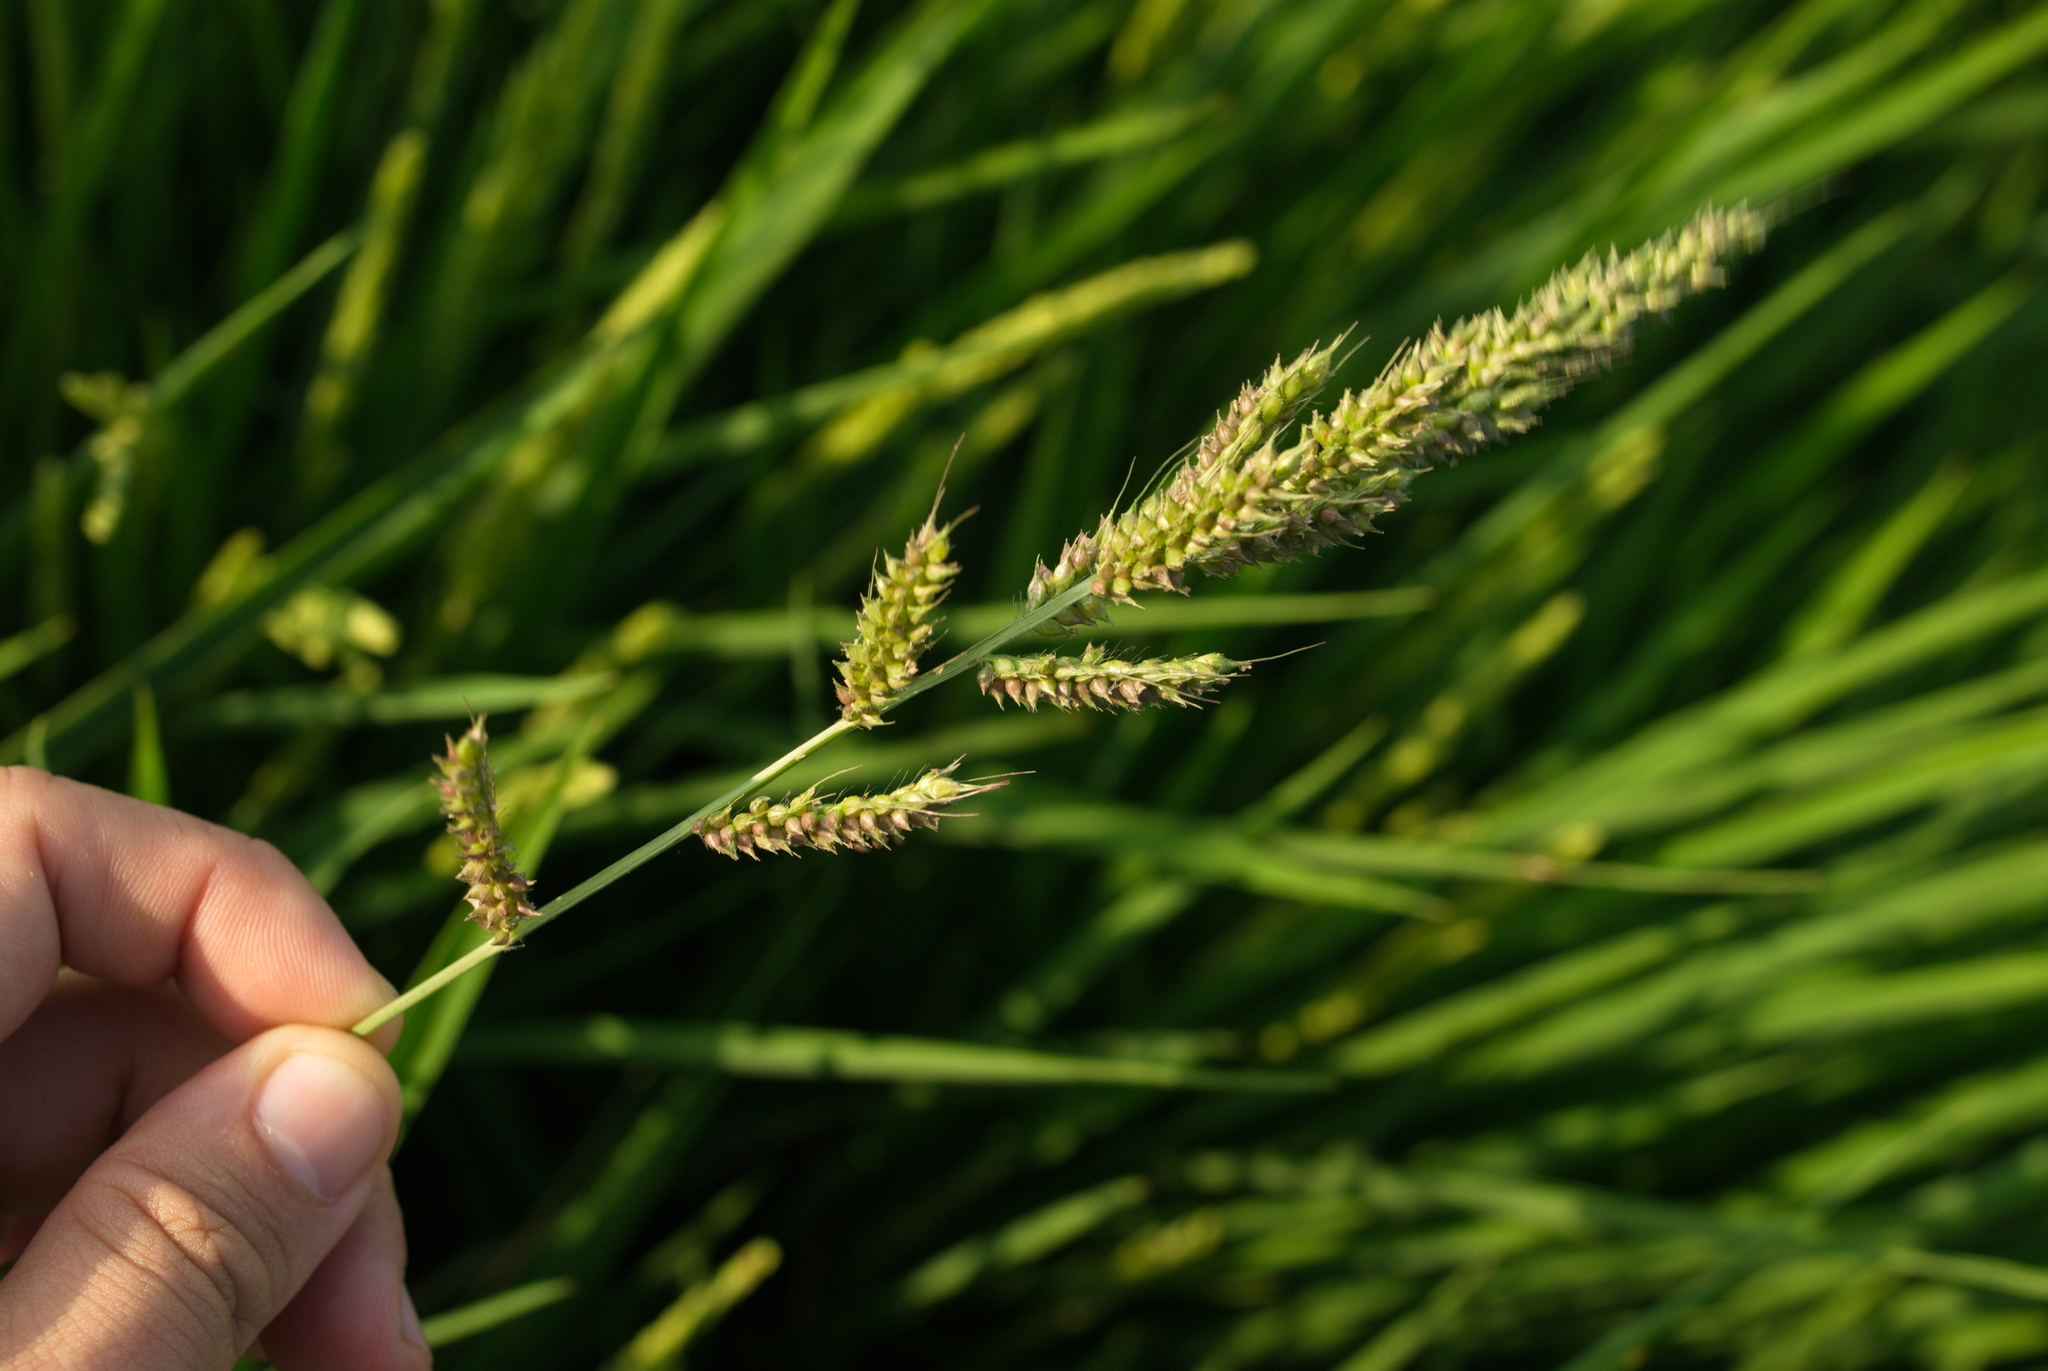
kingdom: Plantae
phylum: Tracheophyta
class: Liliopsida
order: Poales
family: Poaceae
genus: Echinochloa
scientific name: Echinochloa crus-galli
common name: Cockspur
